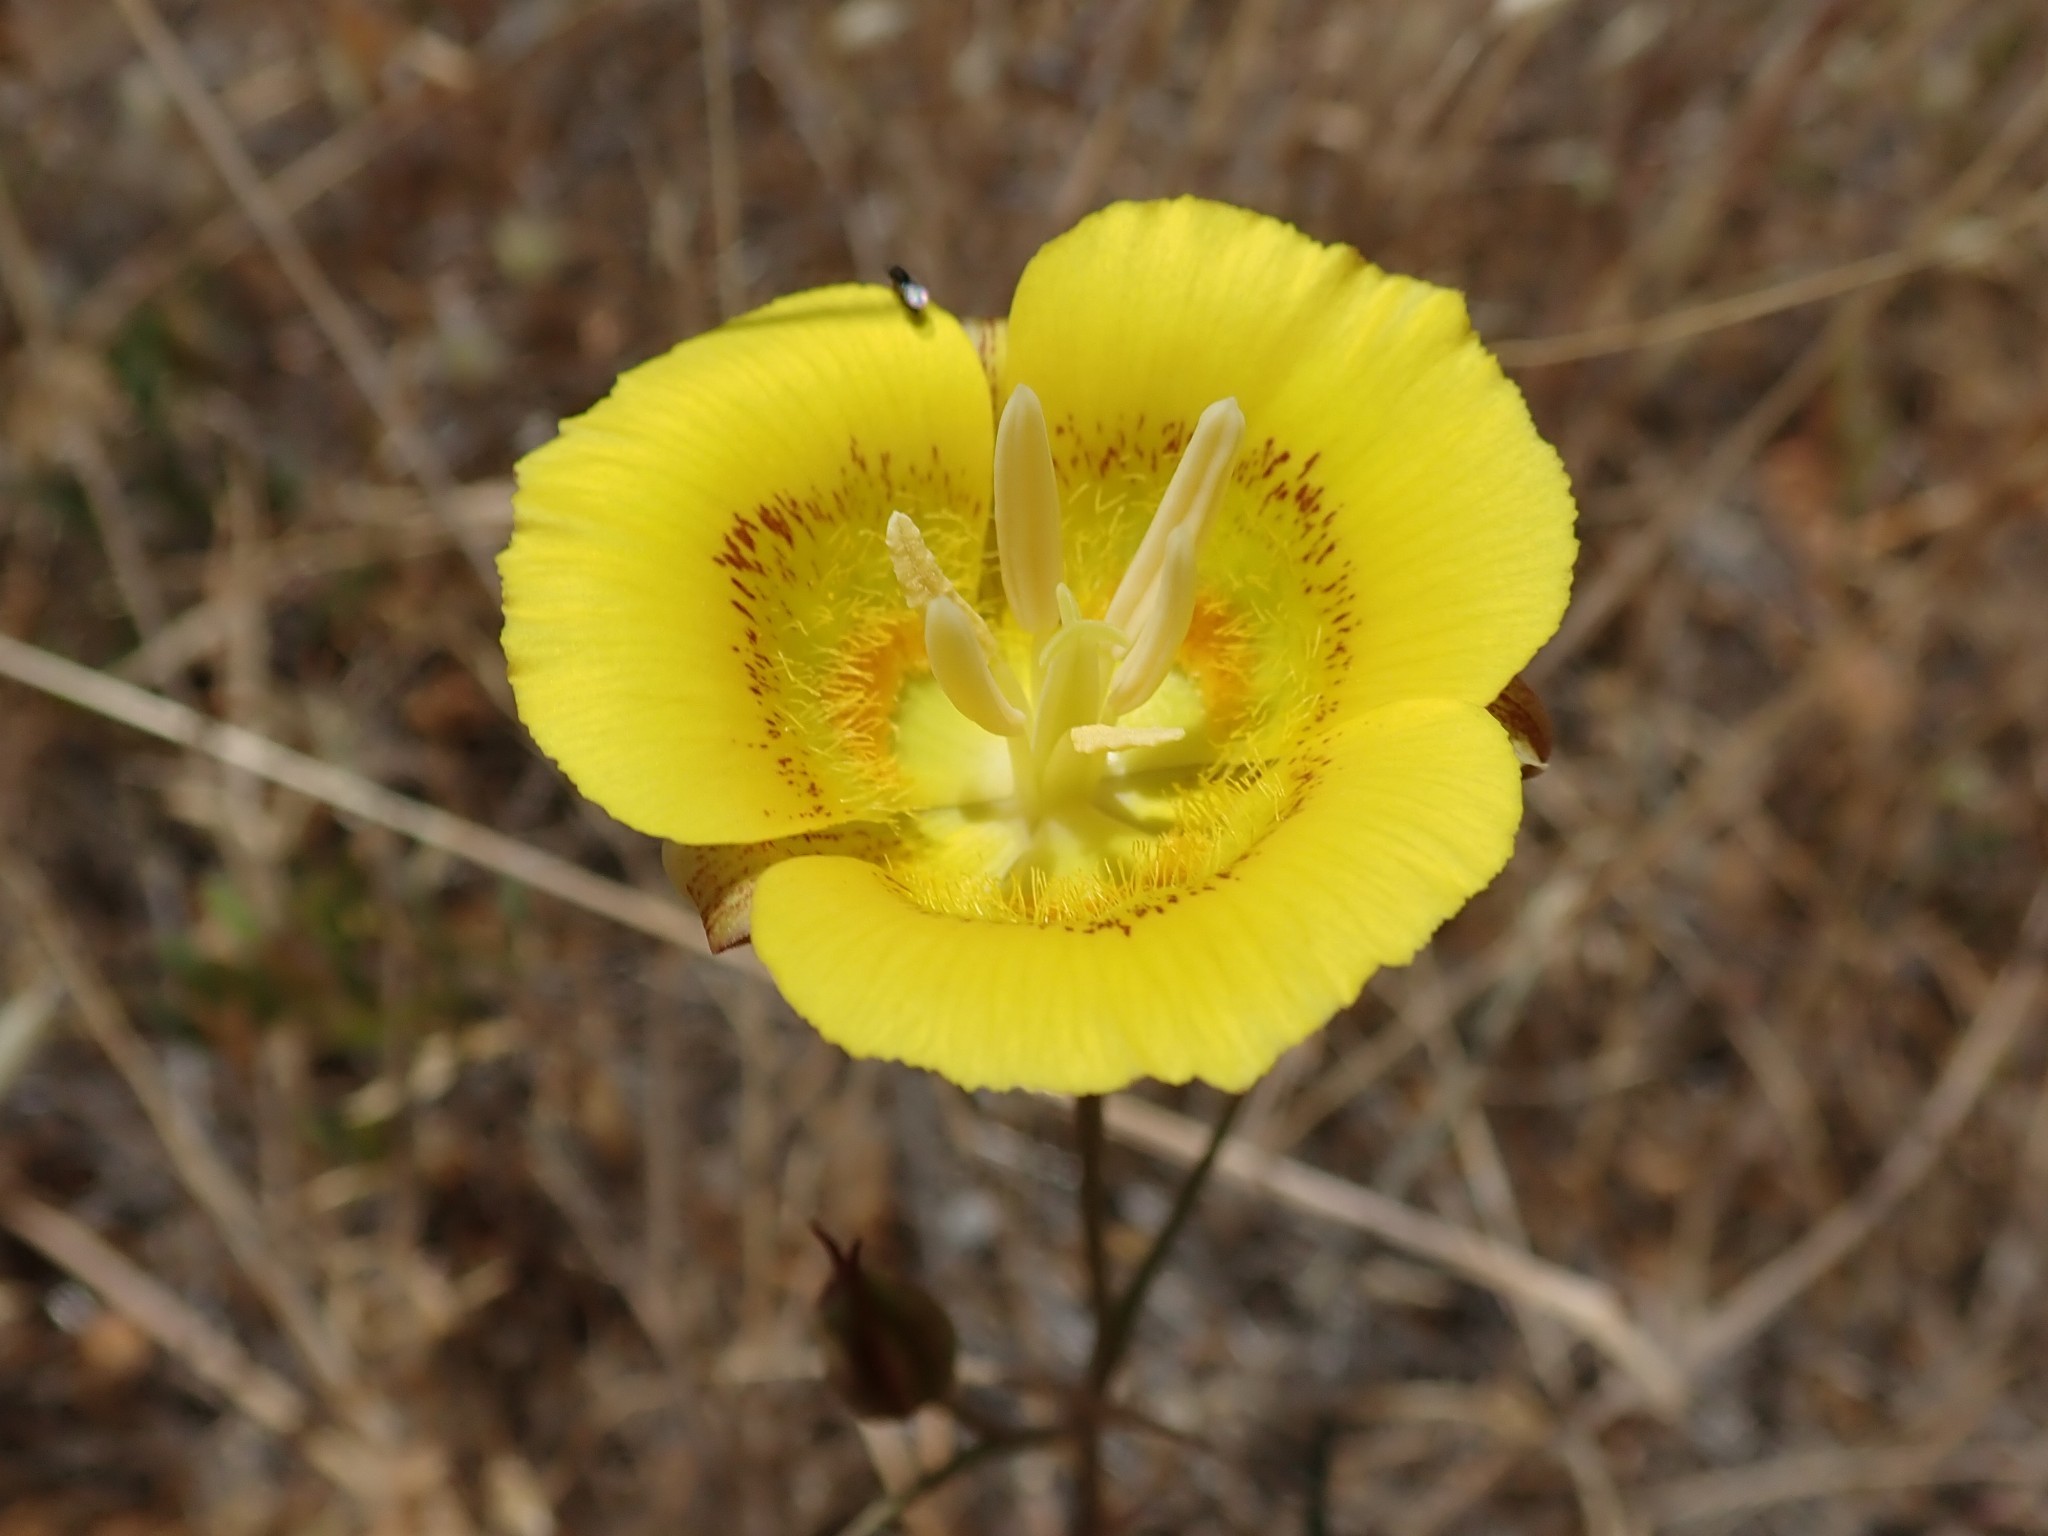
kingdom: Plantae
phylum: Tracheophyta
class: Liliopsida
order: Liliales
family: Liliaceae
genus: Calochortus
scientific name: Calochortus luteus
